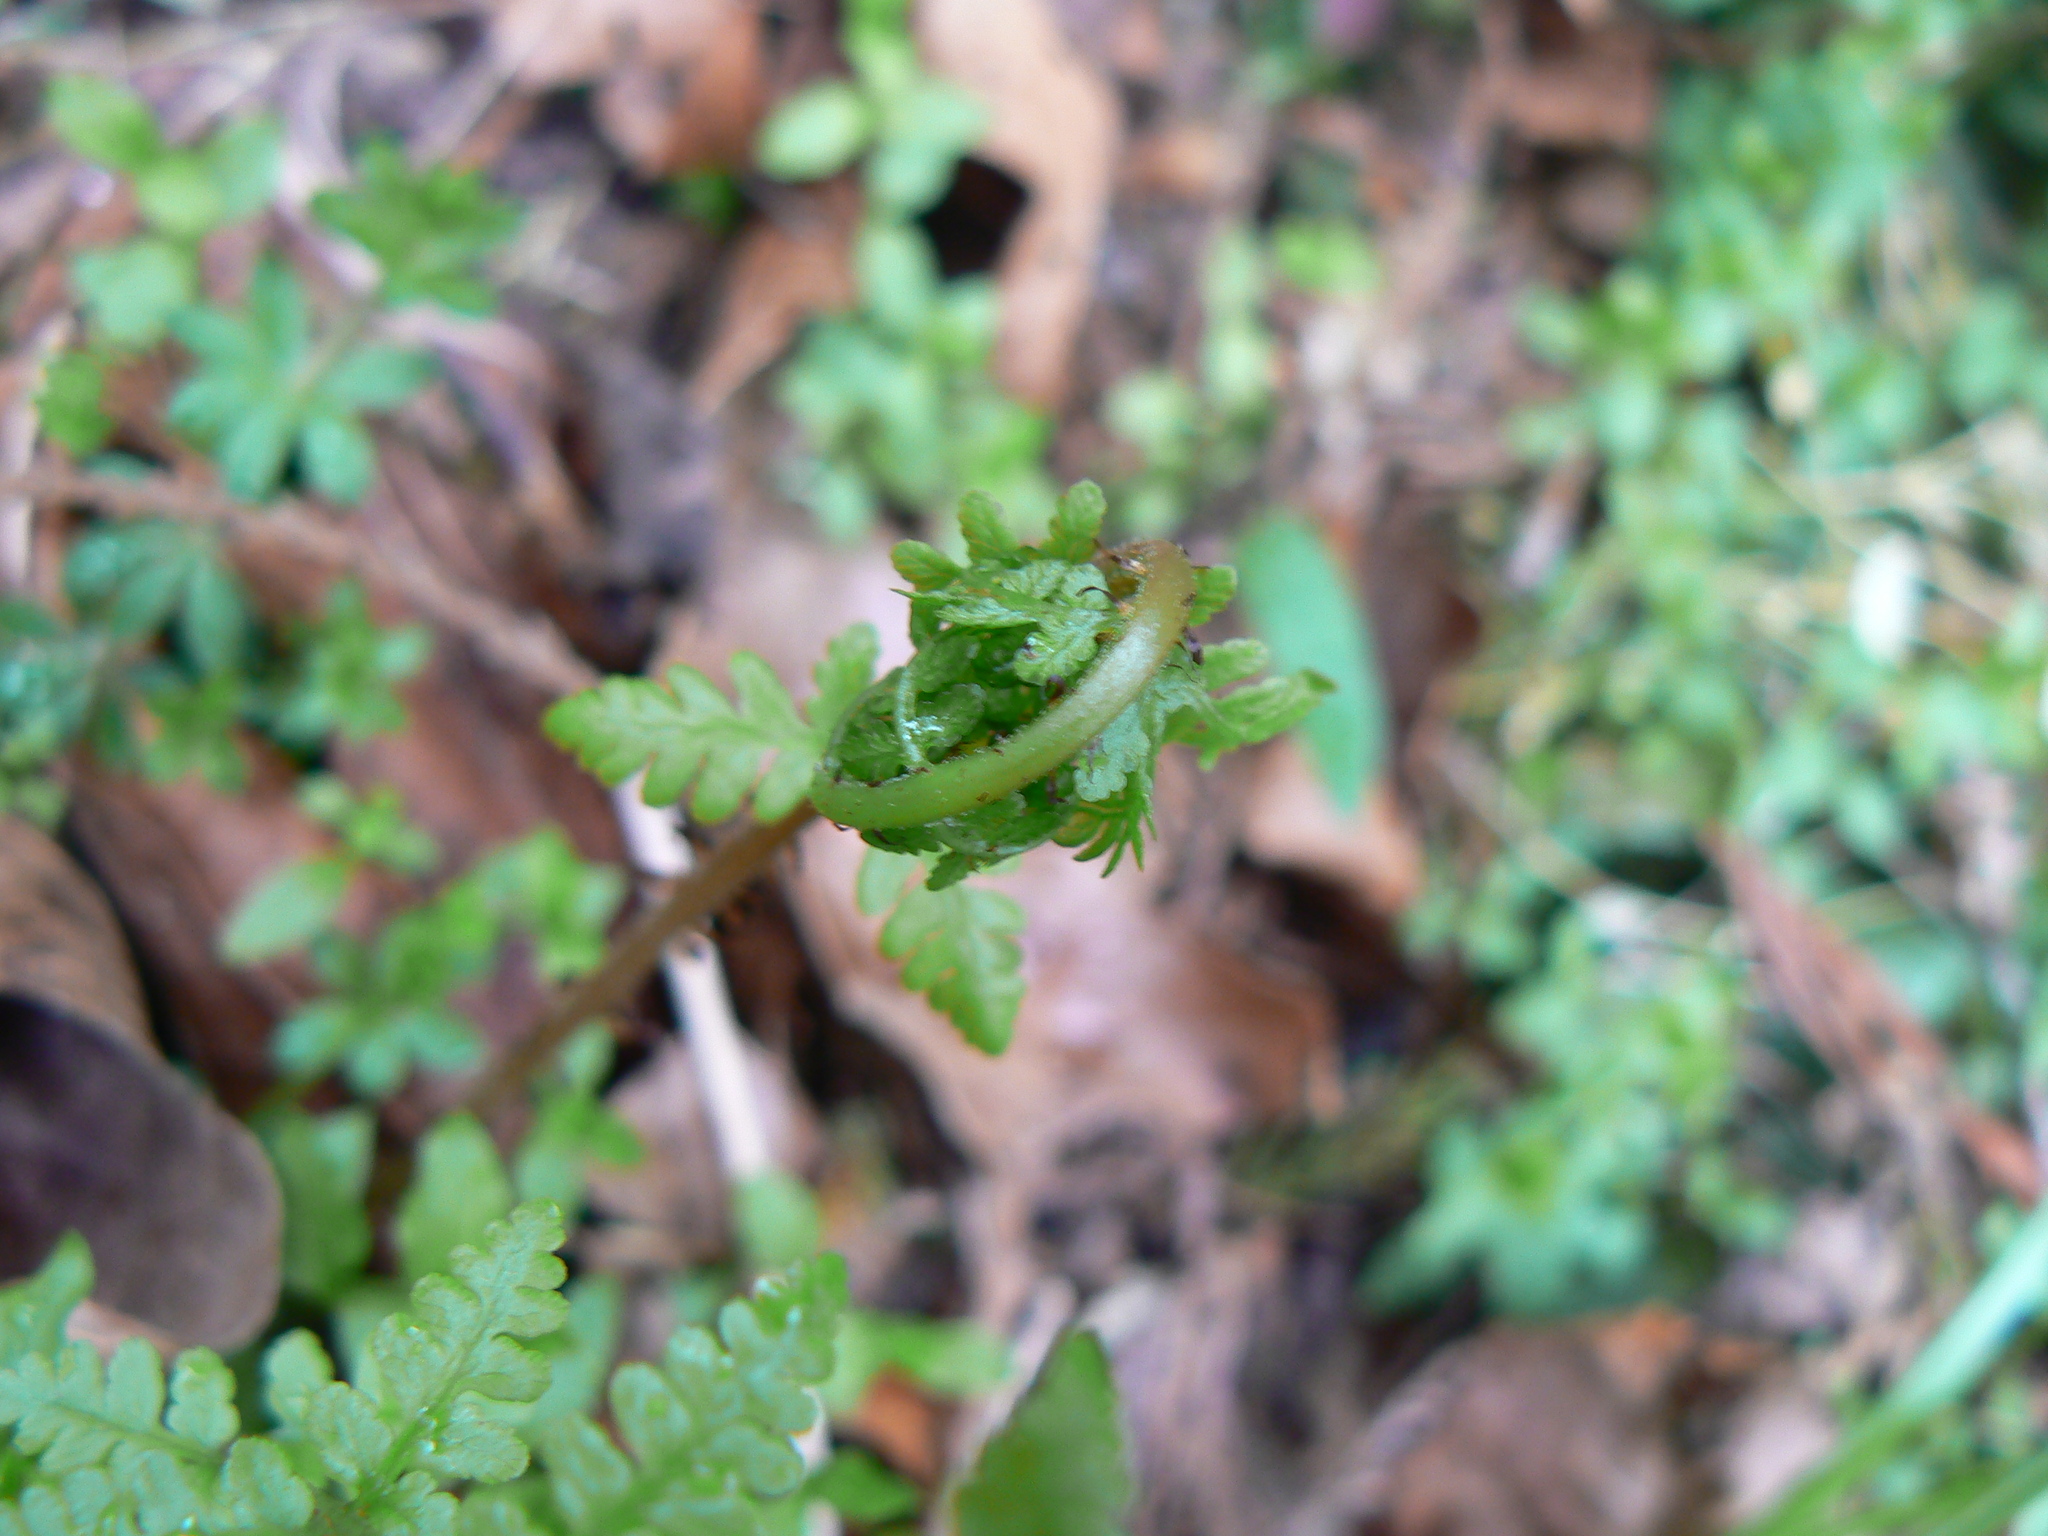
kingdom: Plantae
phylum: Tracheophyta
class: Polypodiopsida
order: Polypodiales
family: Athyriaceae
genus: Athyrium
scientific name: Athyrium cyclosorum
